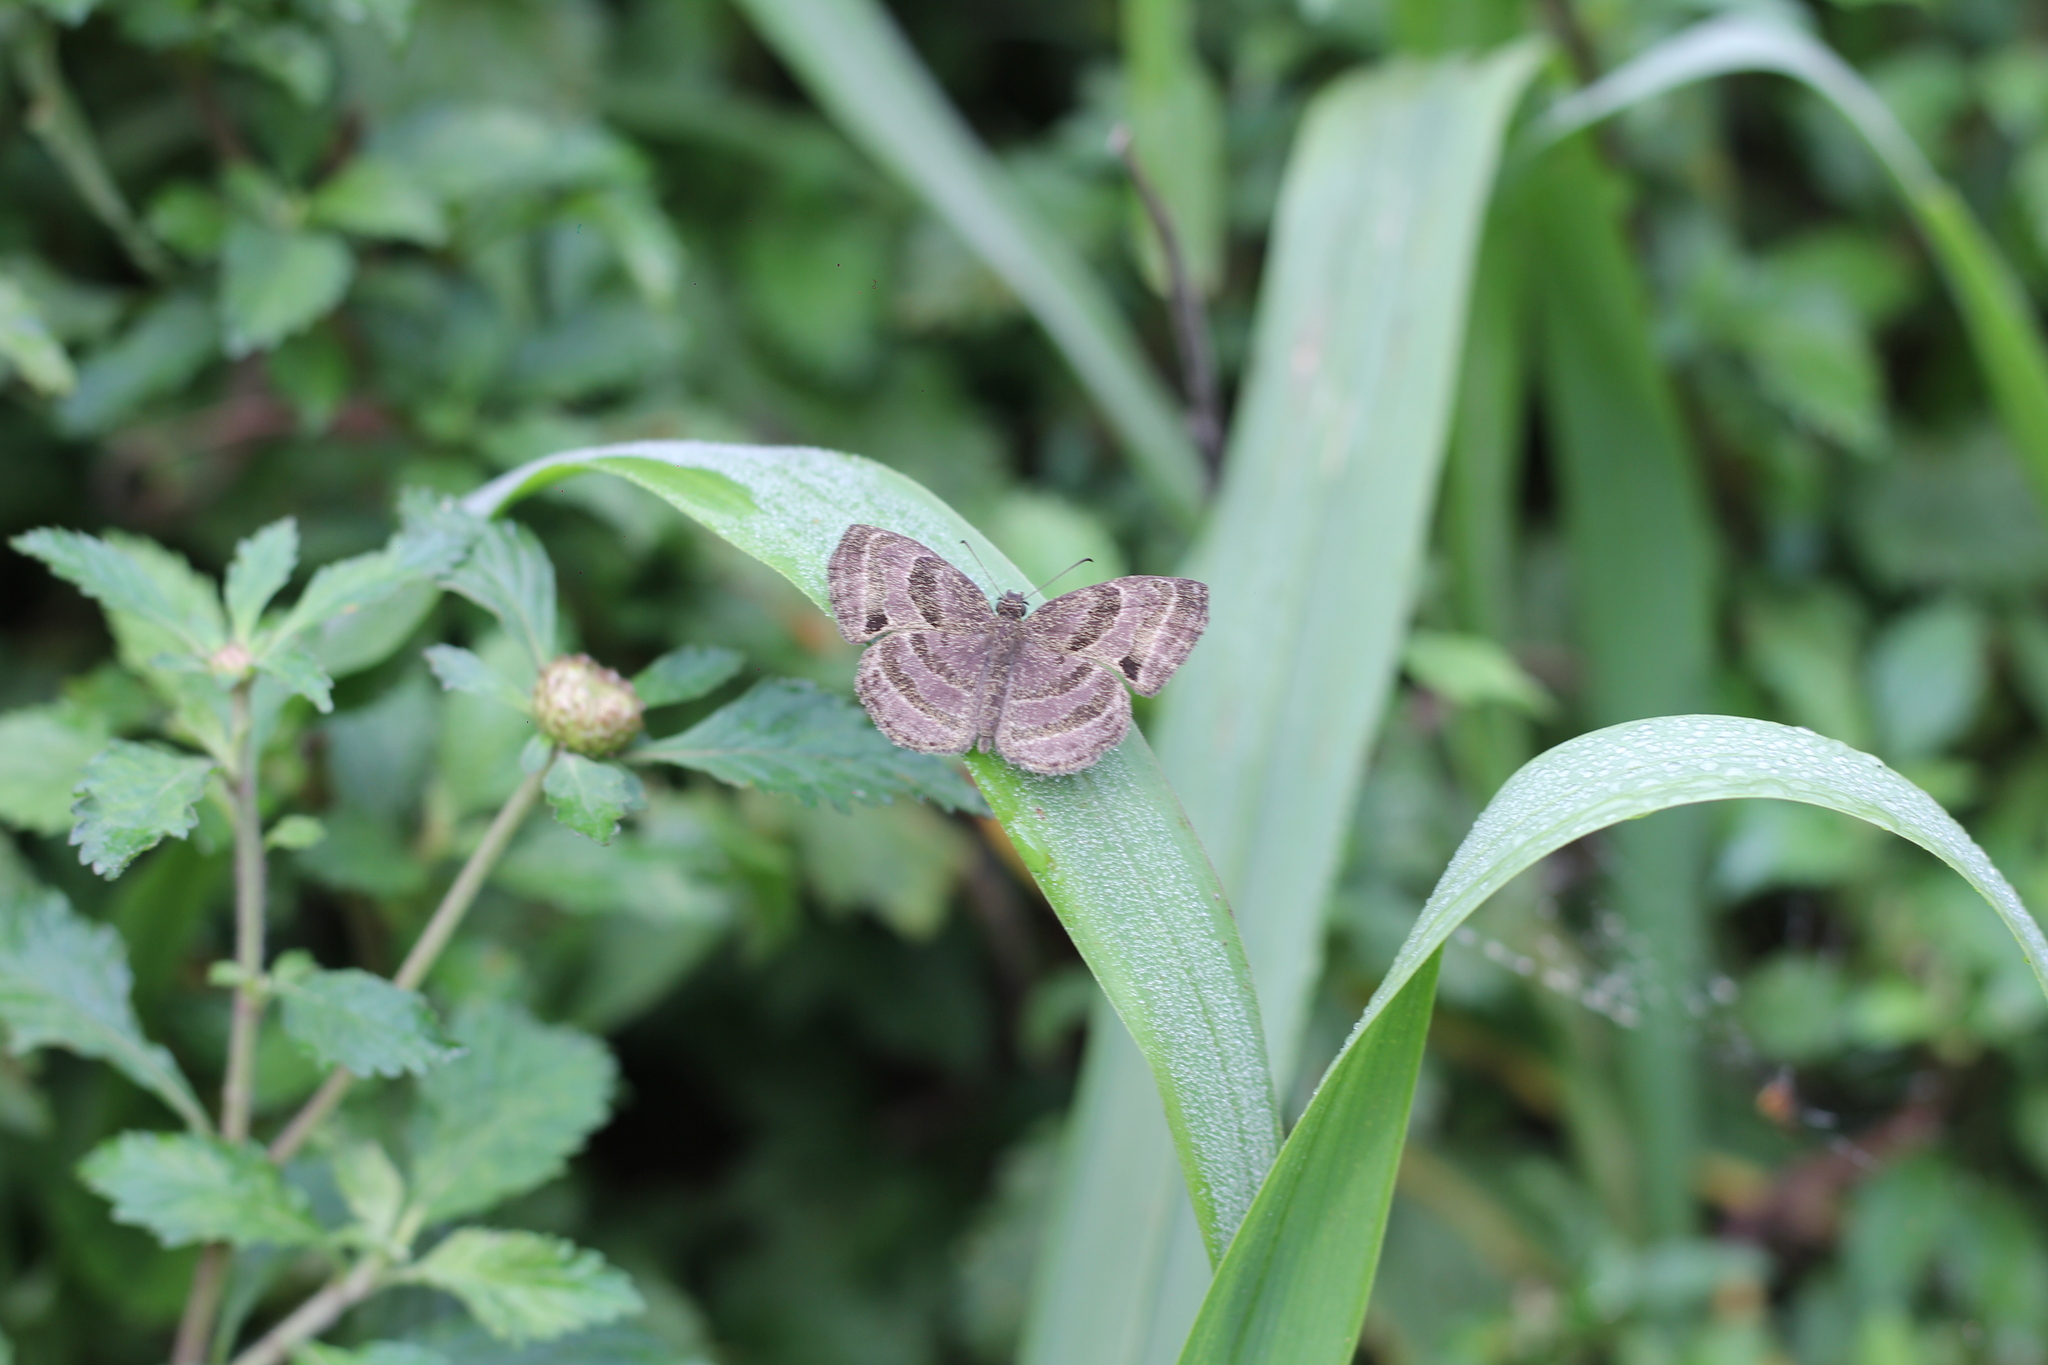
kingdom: Animalia
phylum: Arthropoda
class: Insecta
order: Lepidoptera
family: Hesperiidae
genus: Trina
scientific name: Trina geometrina
